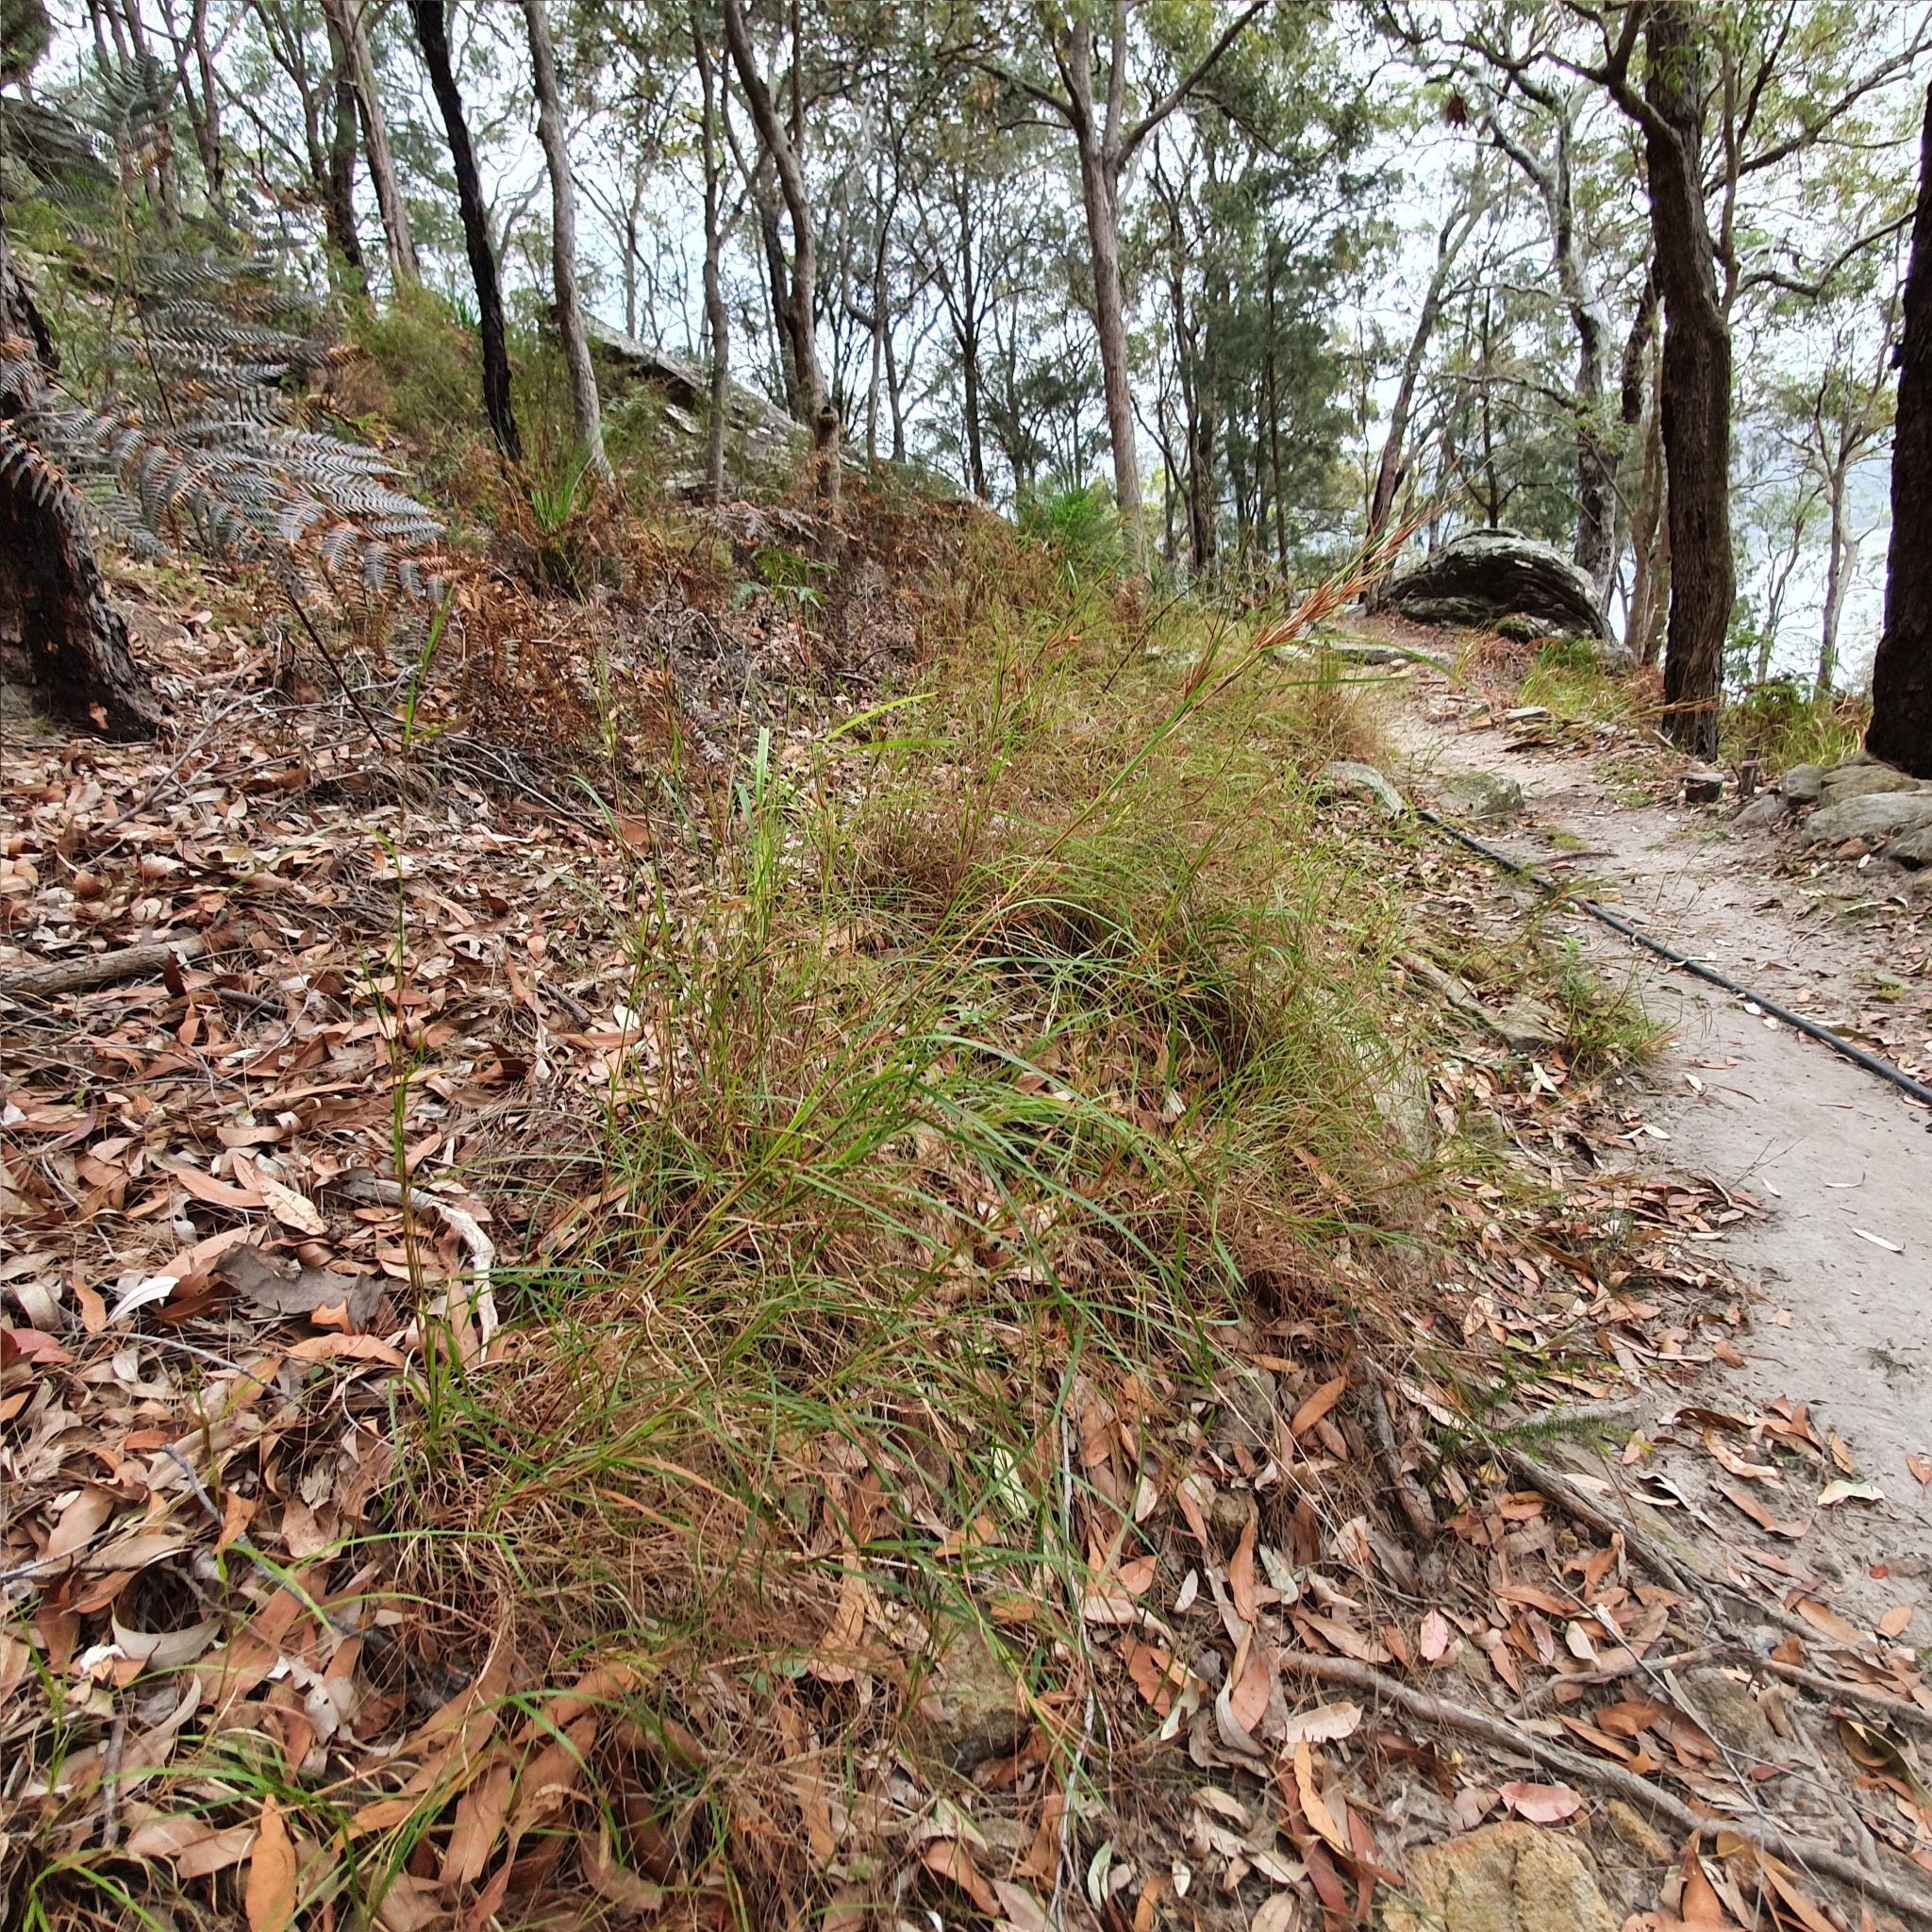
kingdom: Plantae
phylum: Tracheophyta
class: Liliopsida
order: Poales
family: Poaceae
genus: Themeda
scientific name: Themeda triandra
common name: Kangaroo grass
